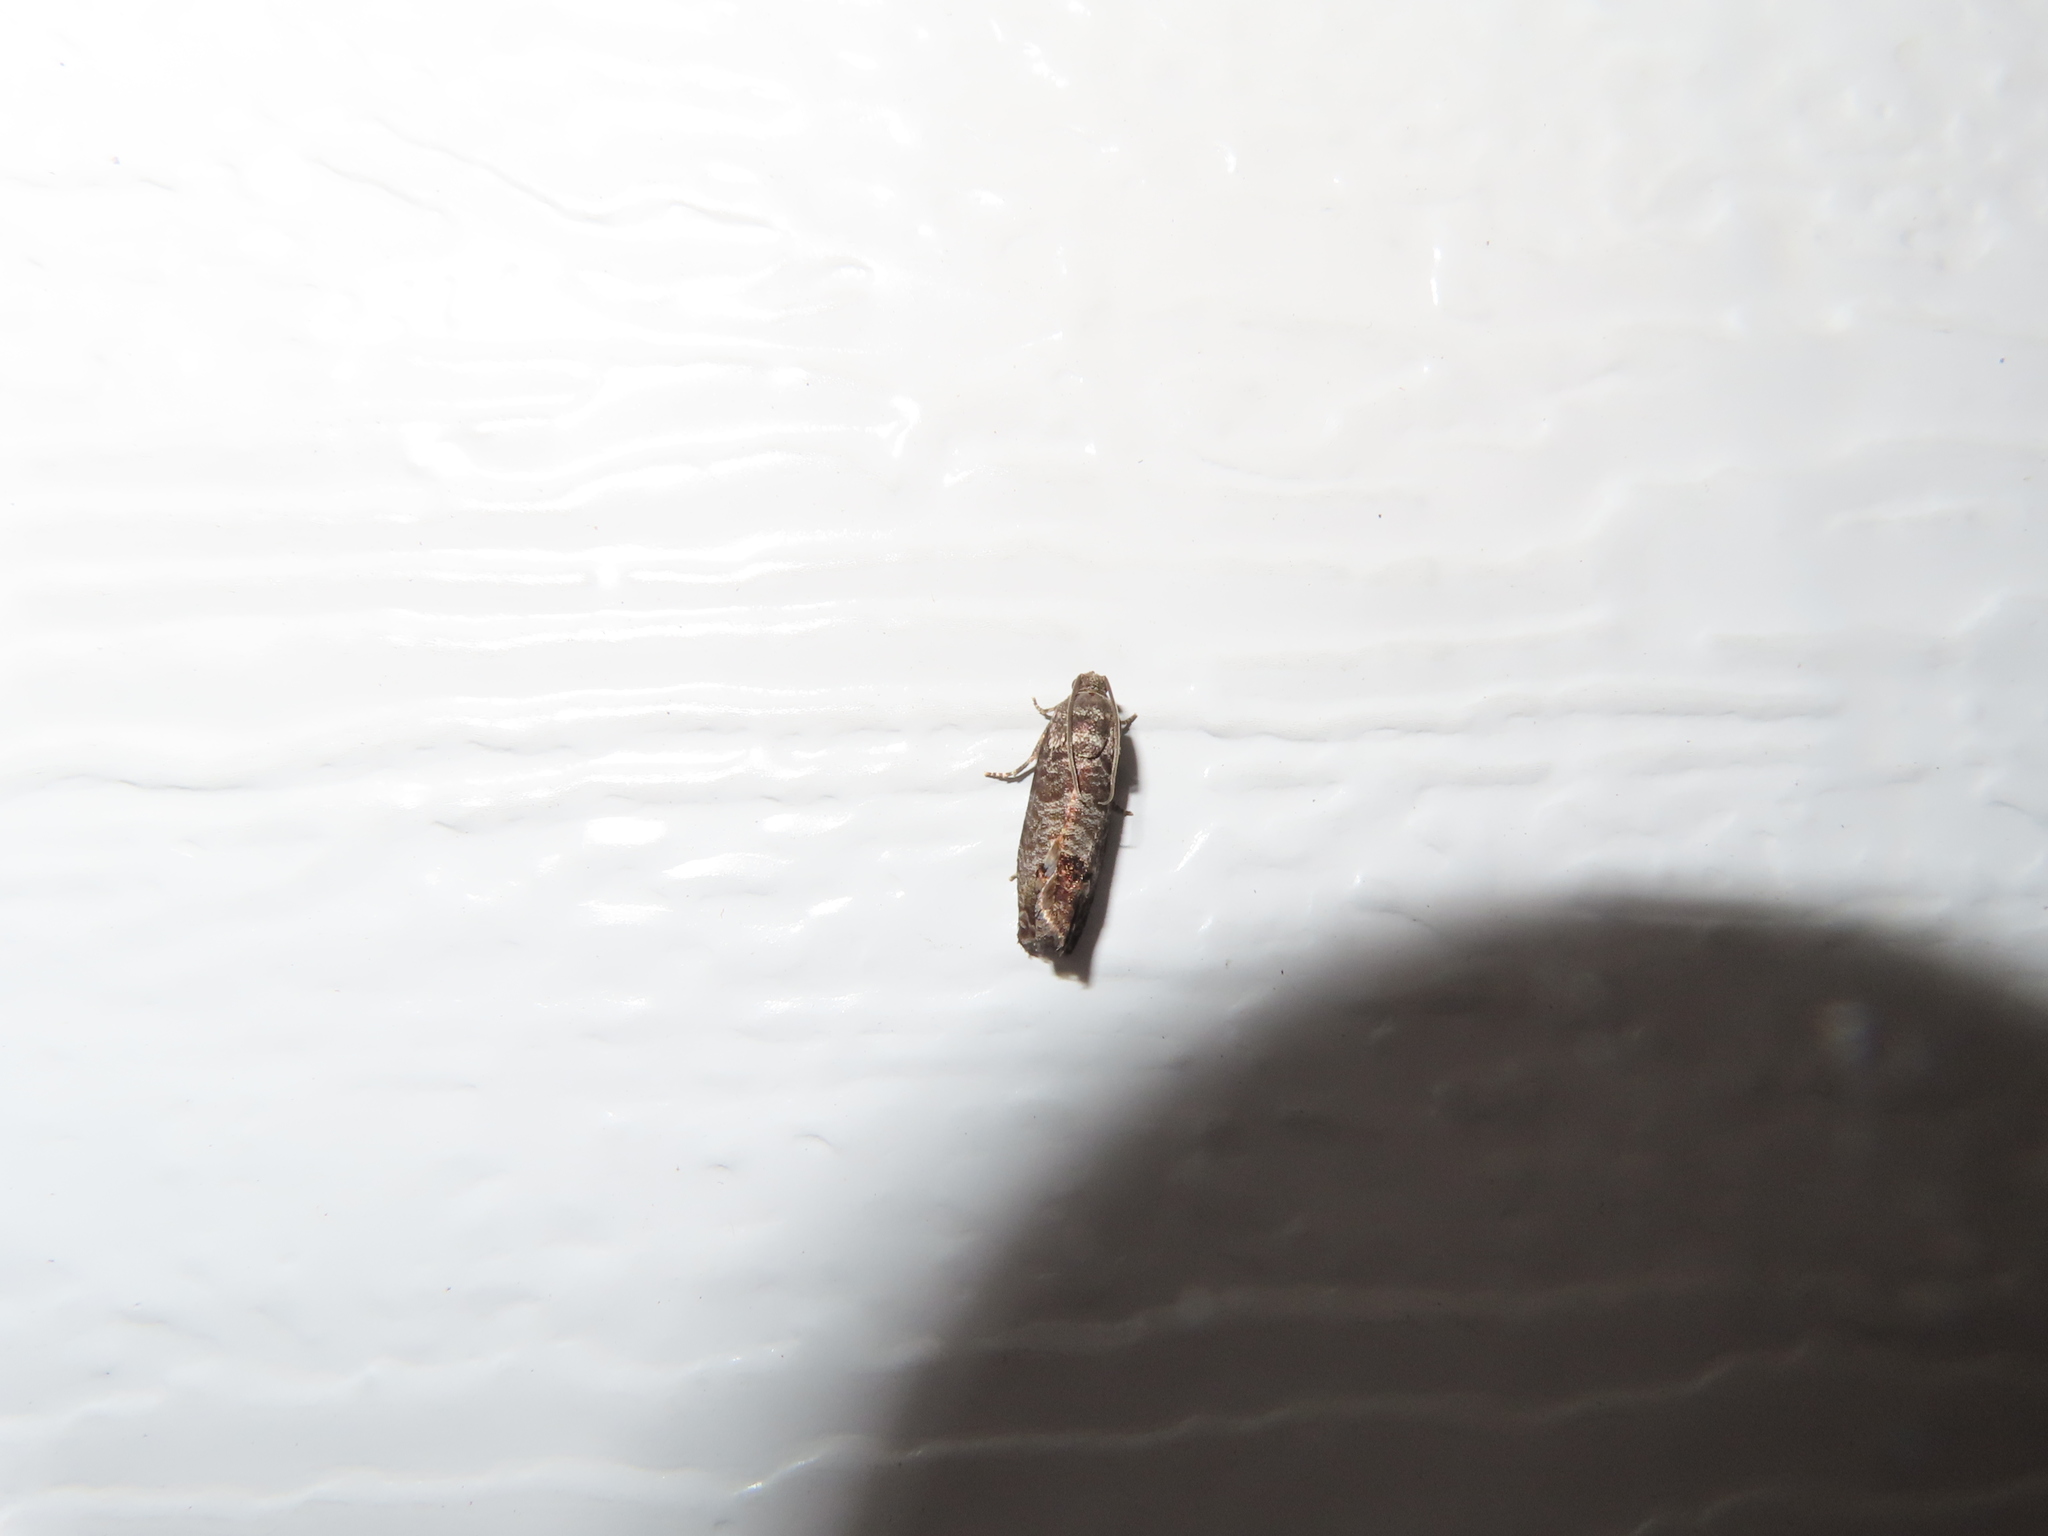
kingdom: Animalia
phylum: Arthropoda
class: Insecta
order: Lepidoptera
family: Tortricidae
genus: Cydia
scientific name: Cydia pomonella
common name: Codling moth
